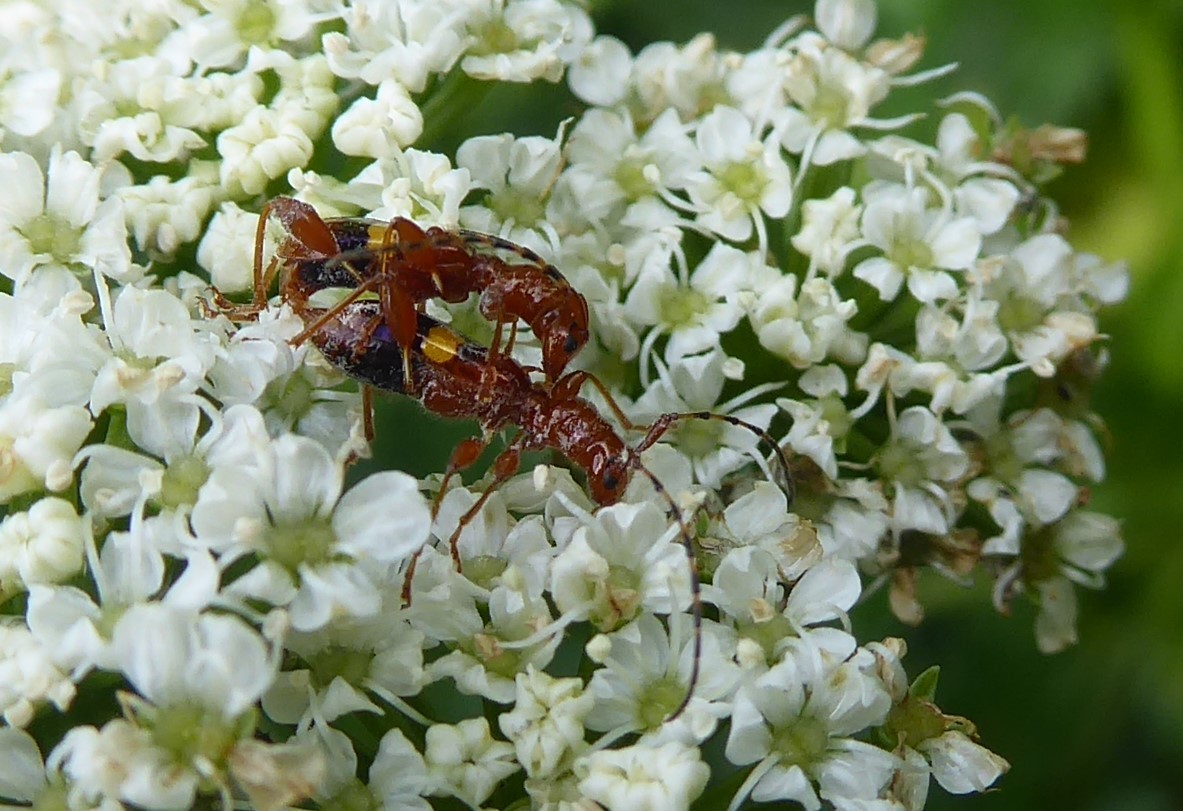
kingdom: Animalia
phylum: Arthropoda
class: Insecta
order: Coleoptera
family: Cerambycidae
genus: Zorion
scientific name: Zorion australe
